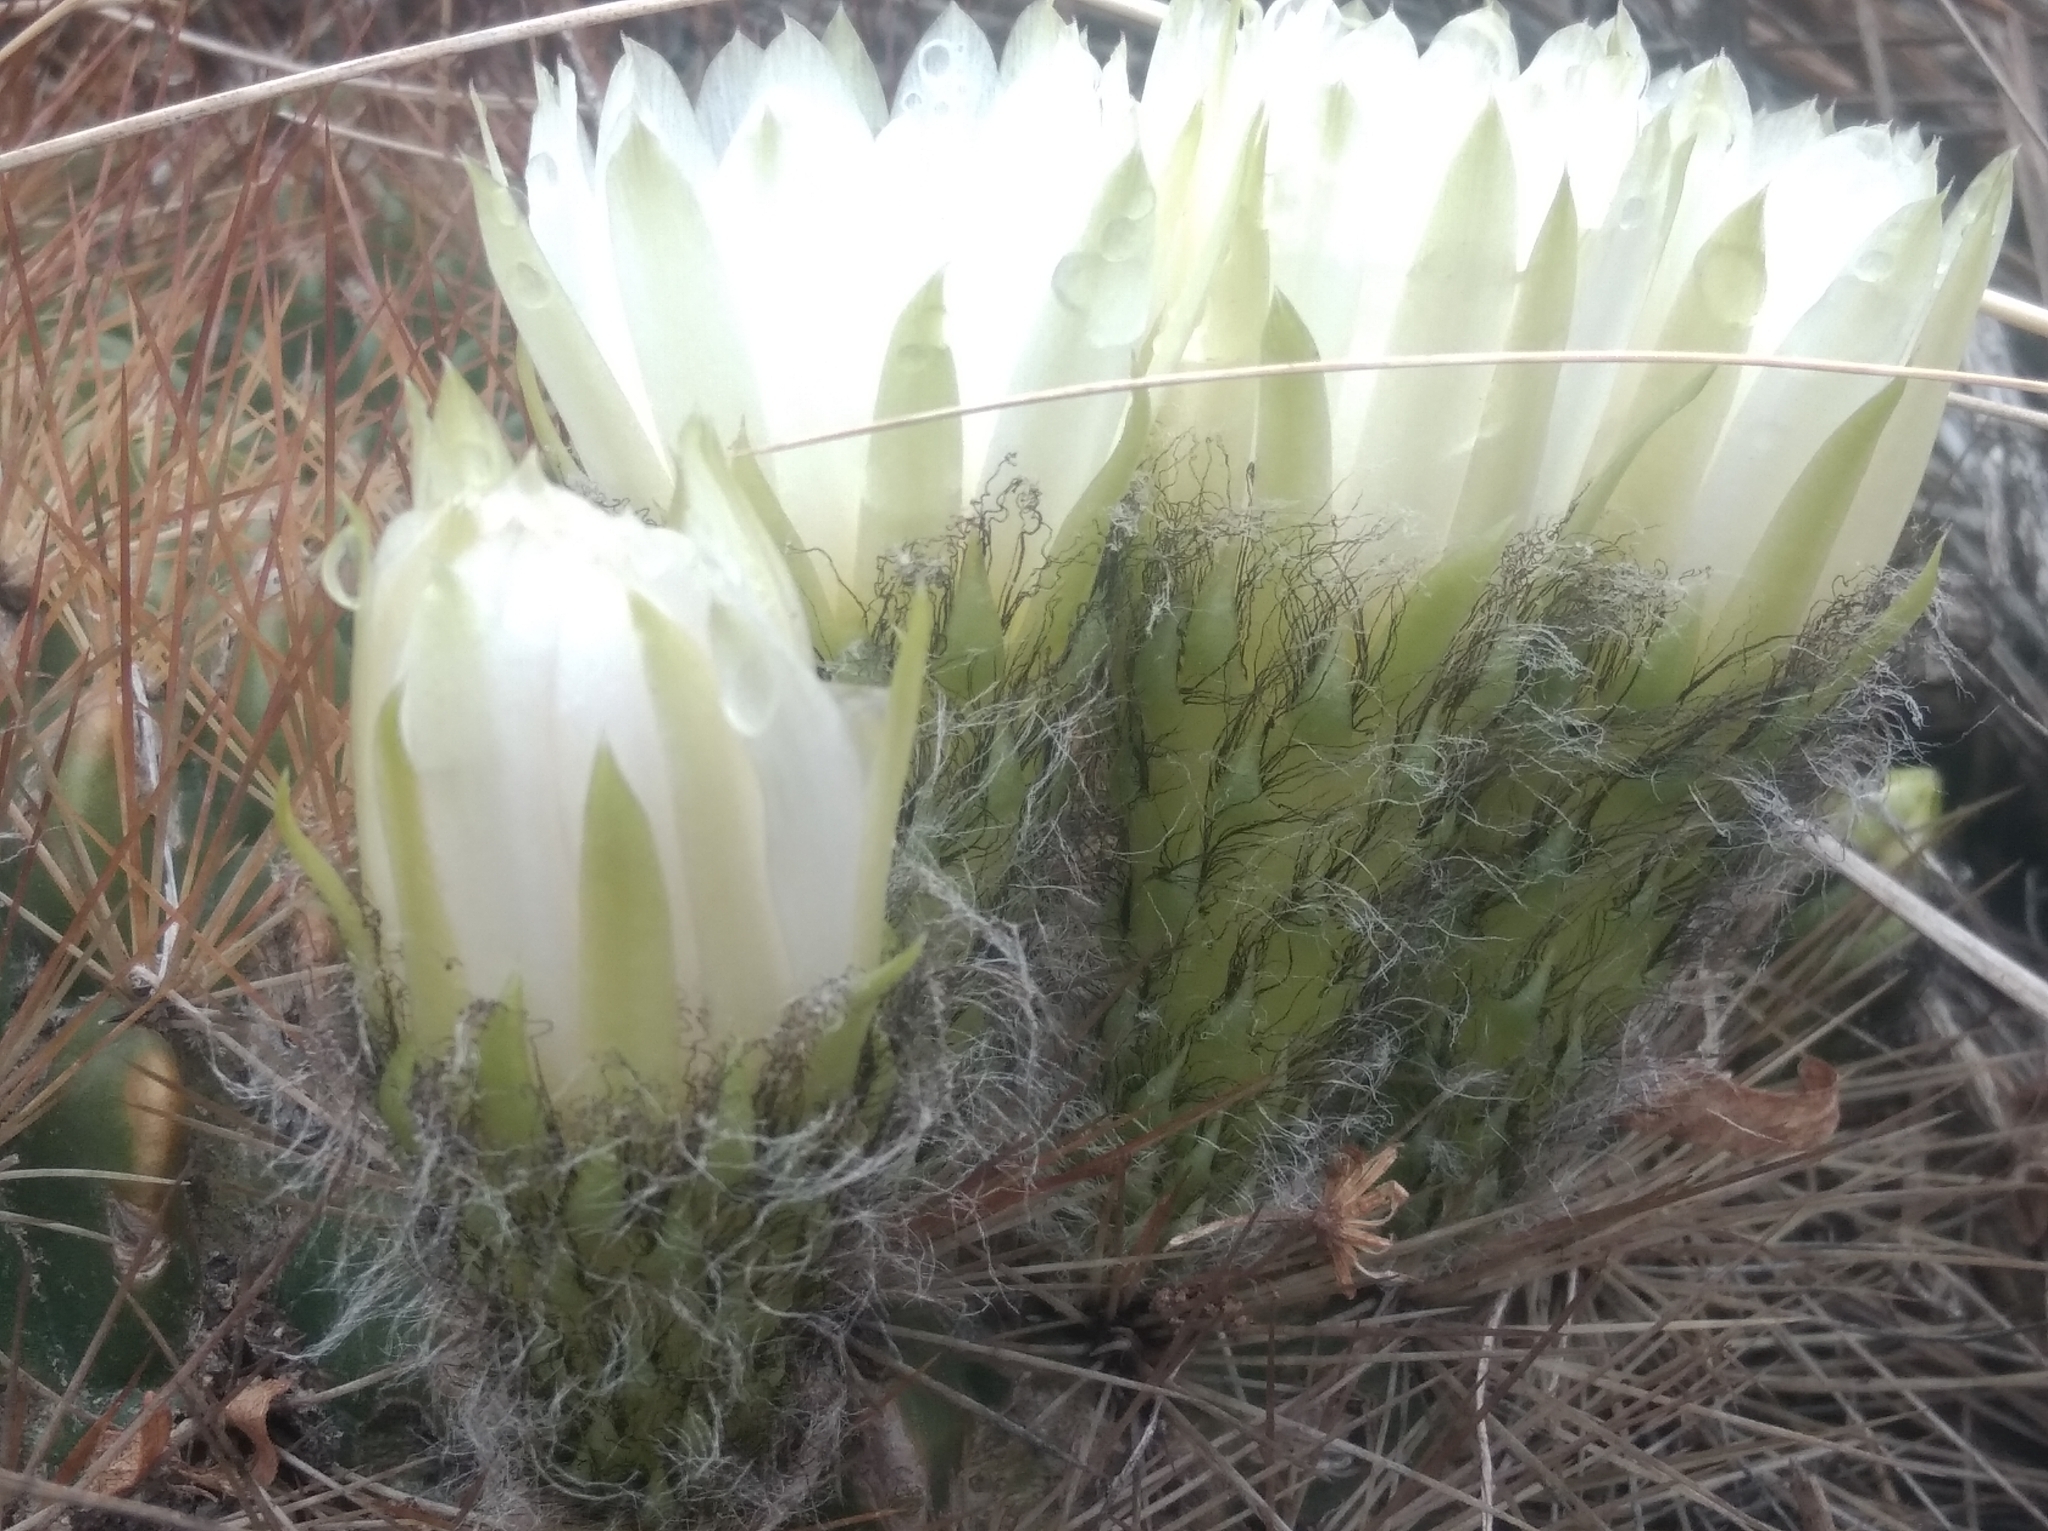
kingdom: Plantae
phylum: Tracheophyta
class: Magnoliopsida
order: Caryophyllales
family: Cactaceae
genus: Lobivia
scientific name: Lobivia chrysochete
